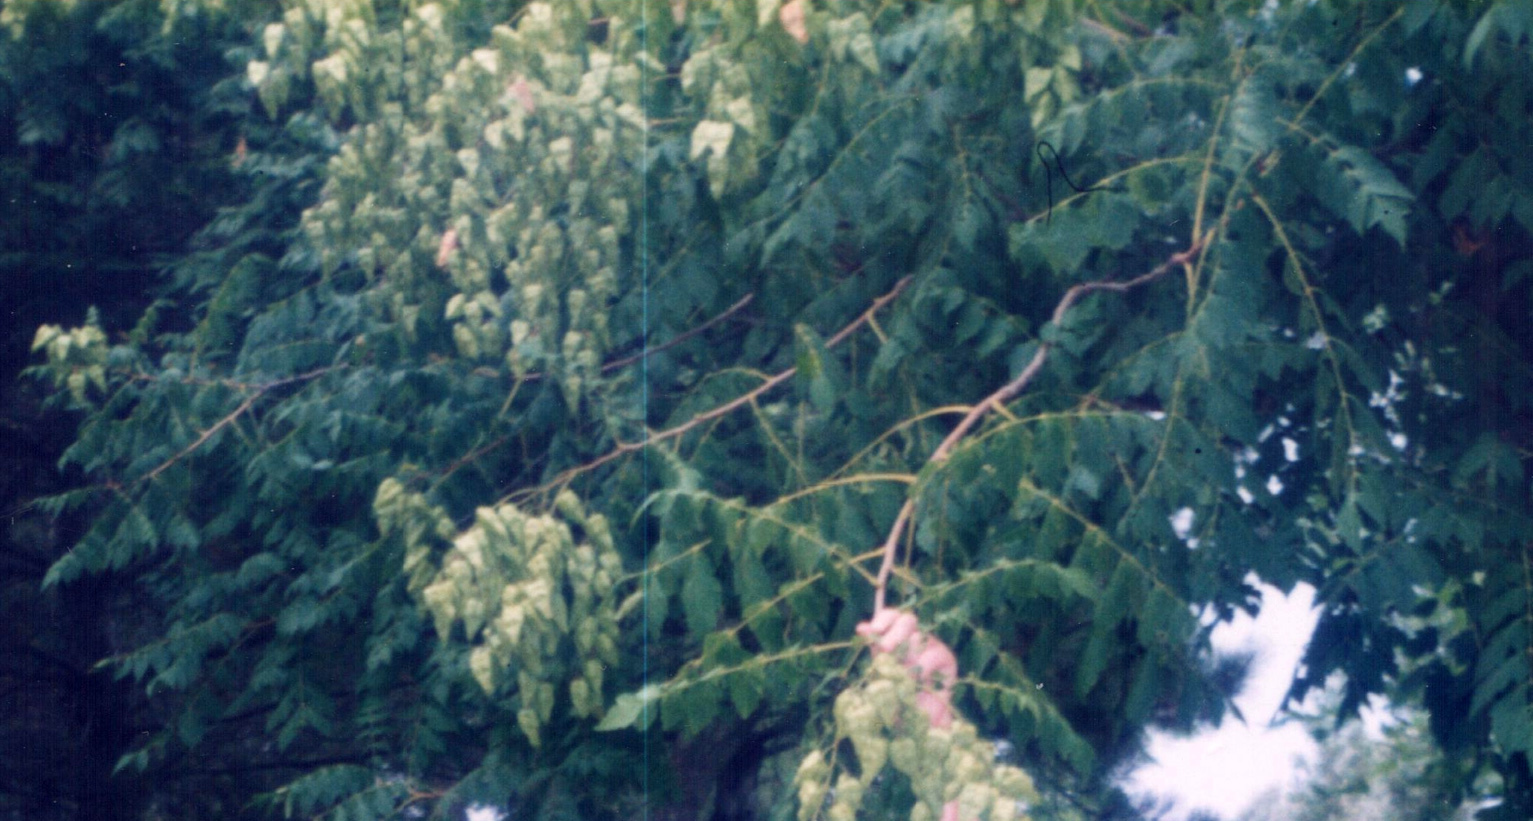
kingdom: Plantae
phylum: Tracheophyta
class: Magnoliopsida
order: Sapindales
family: Sapindaceae
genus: Koelreuteria
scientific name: Koelreuteria paniculata
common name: Pride-of-india
